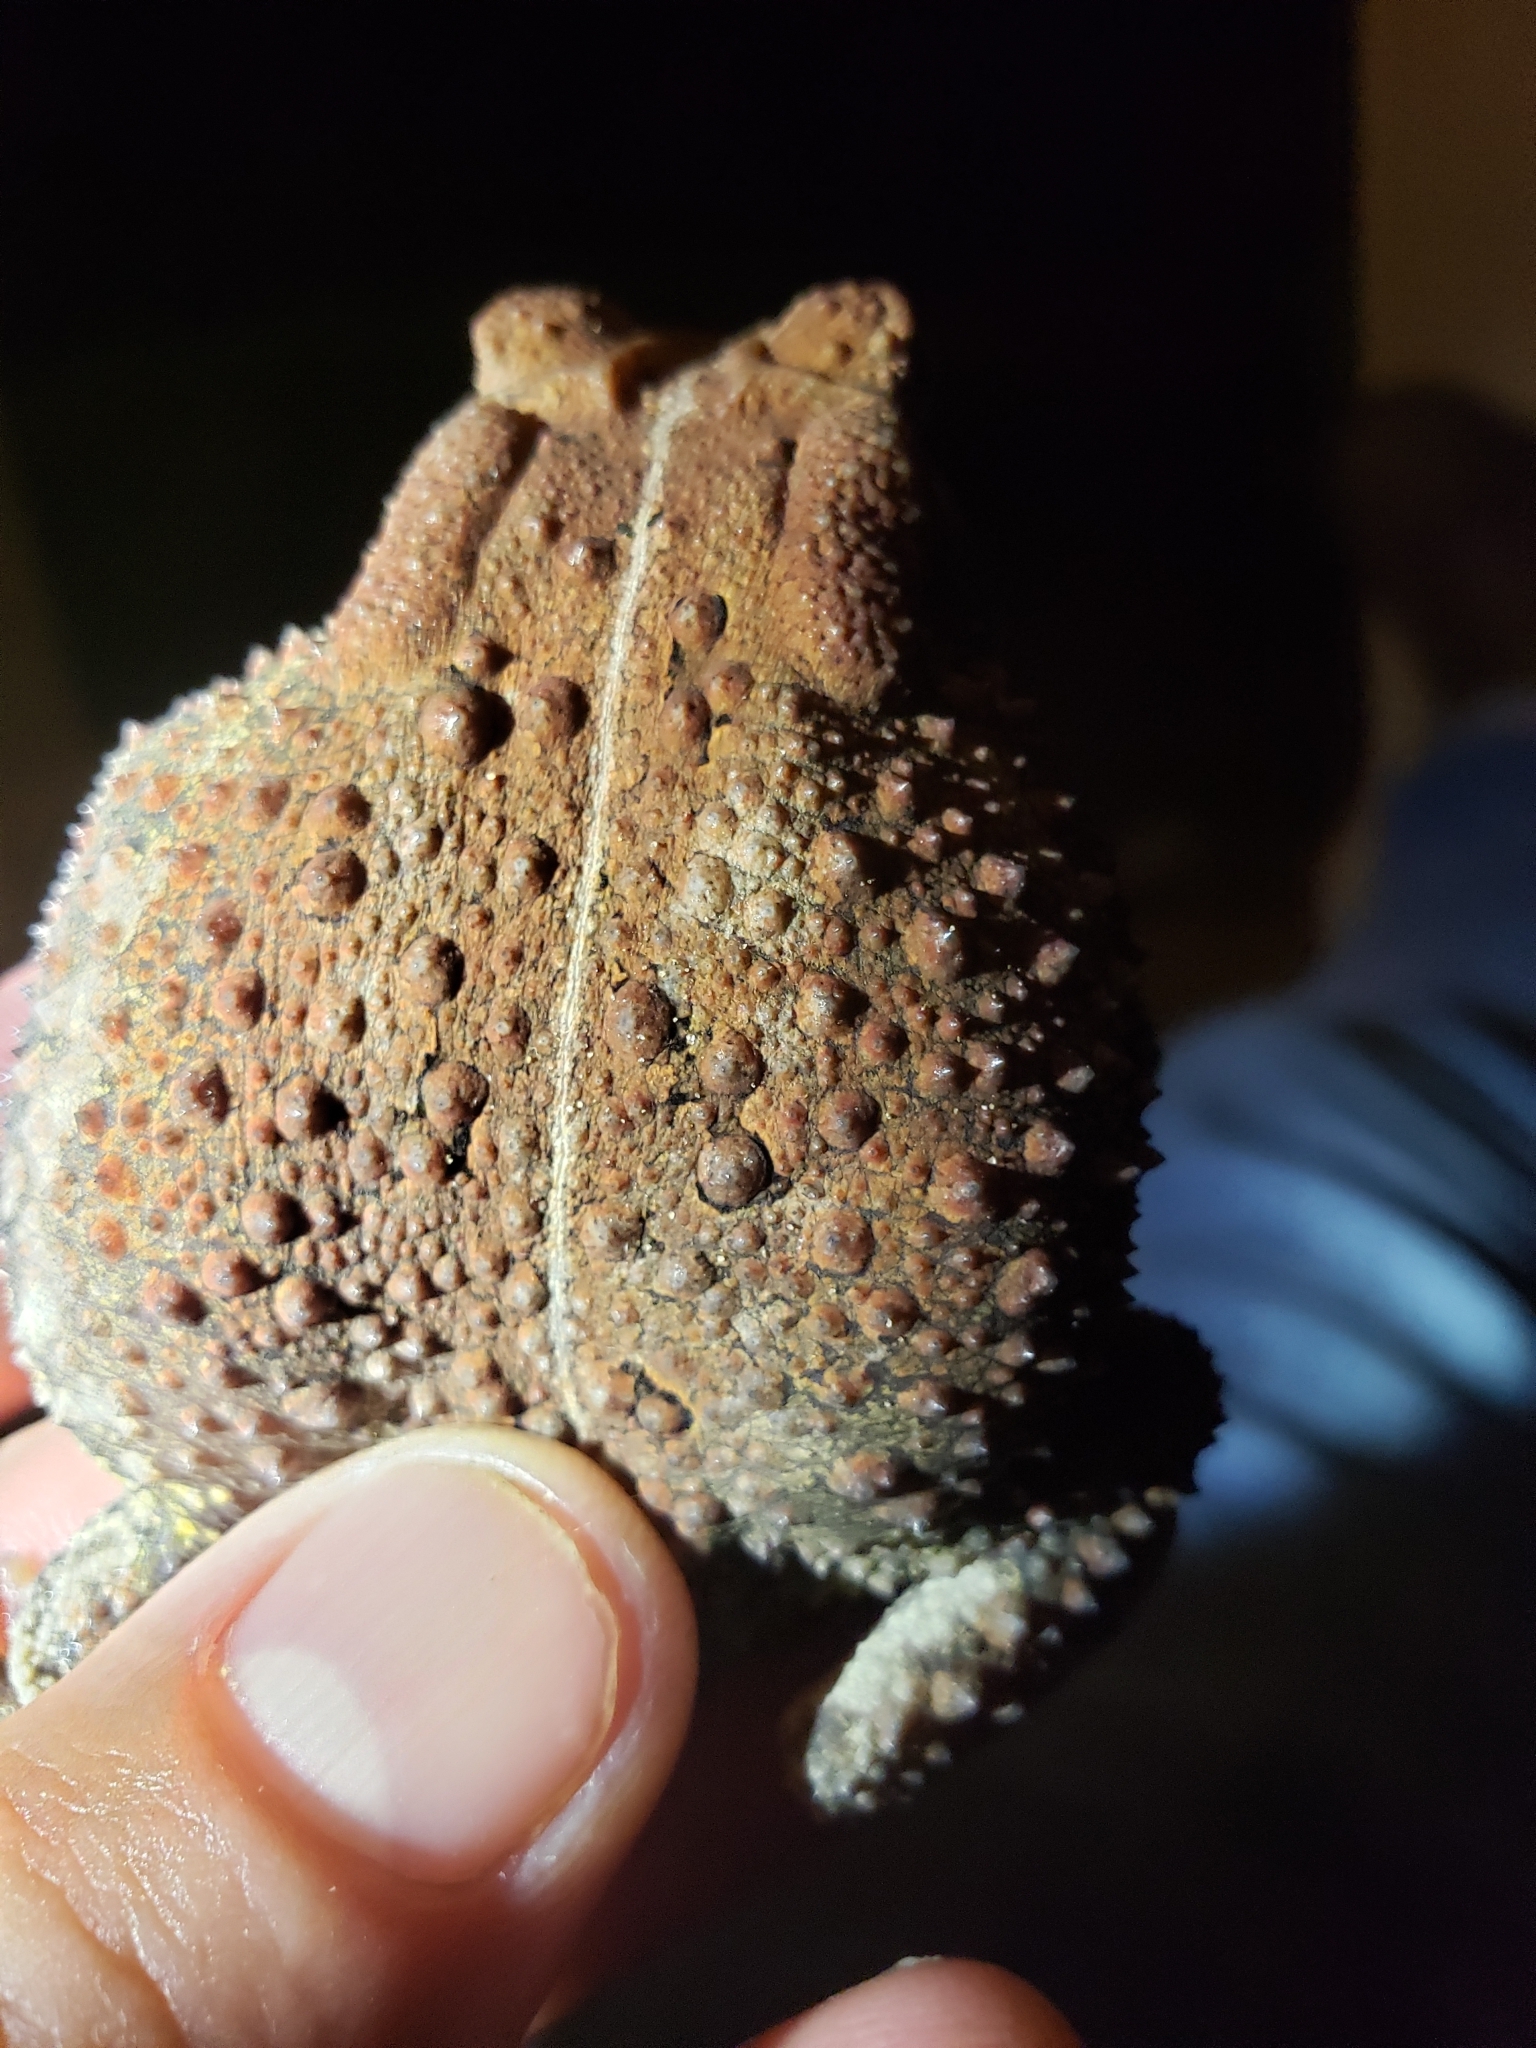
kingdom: Animalia
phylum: Chordata
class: Amphibia
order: Anura
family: Bufonidae
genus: Anaxyrus
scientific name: Anaxyrus americanus
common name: American toad
